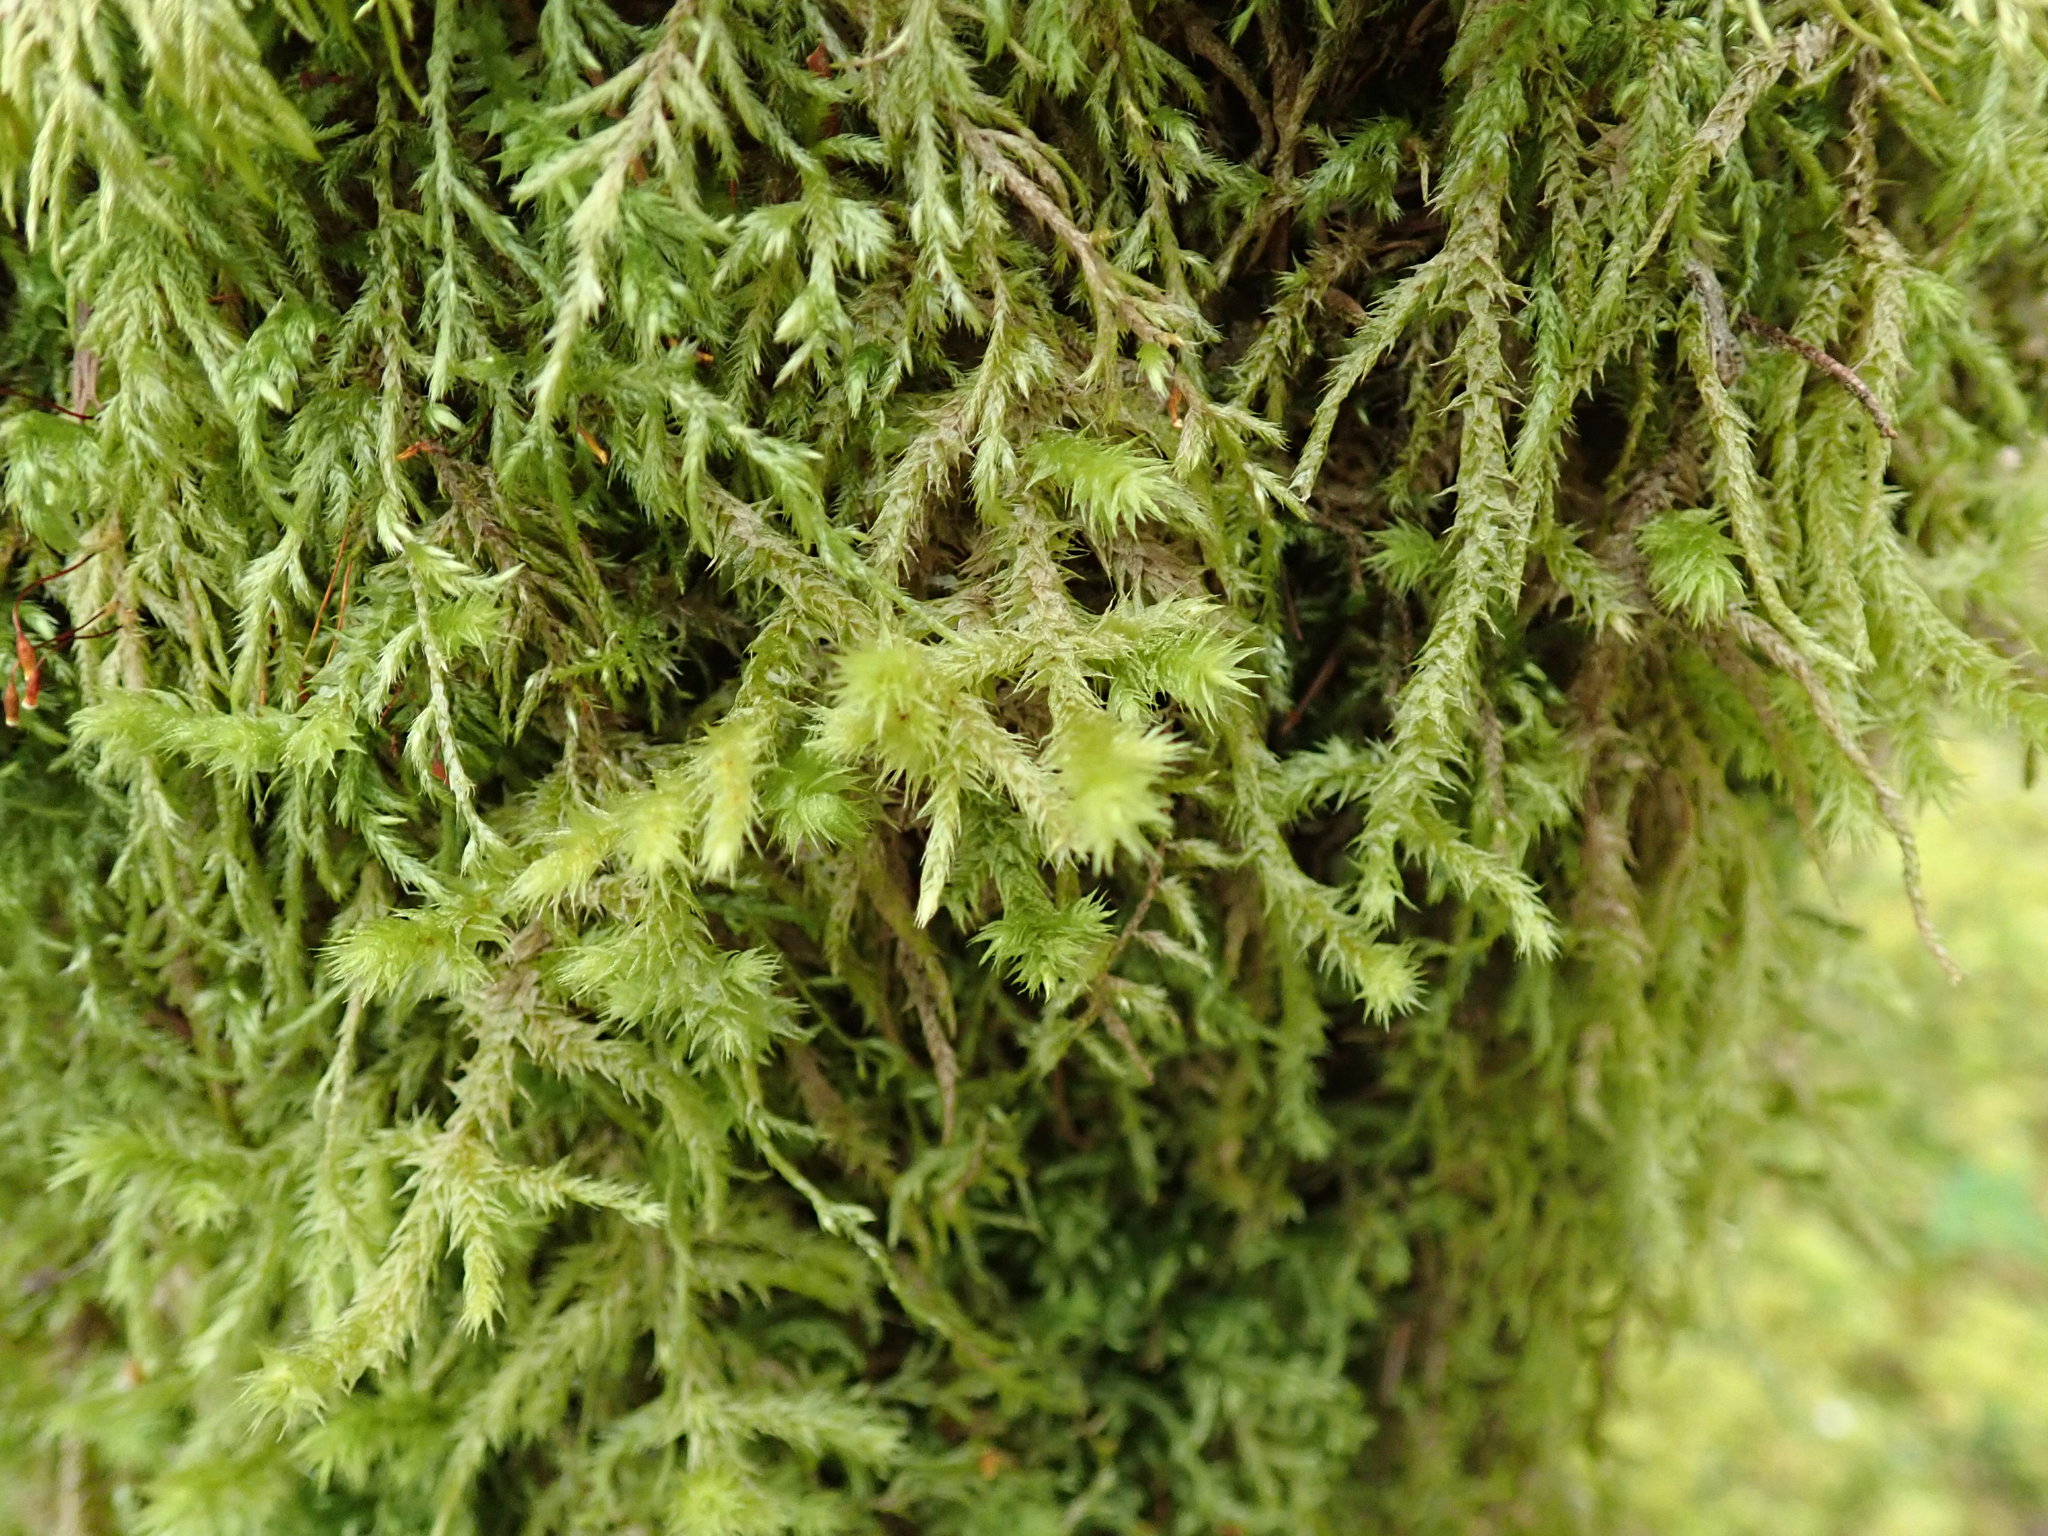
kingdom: Plantae
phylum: Bryophyta
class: Bryopsida
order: Hypnales
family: Hylocomiaceae
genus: Hylocomiadelphus
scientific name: Hylocomiadelphus triquetrus
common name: Rough goose neck moss
